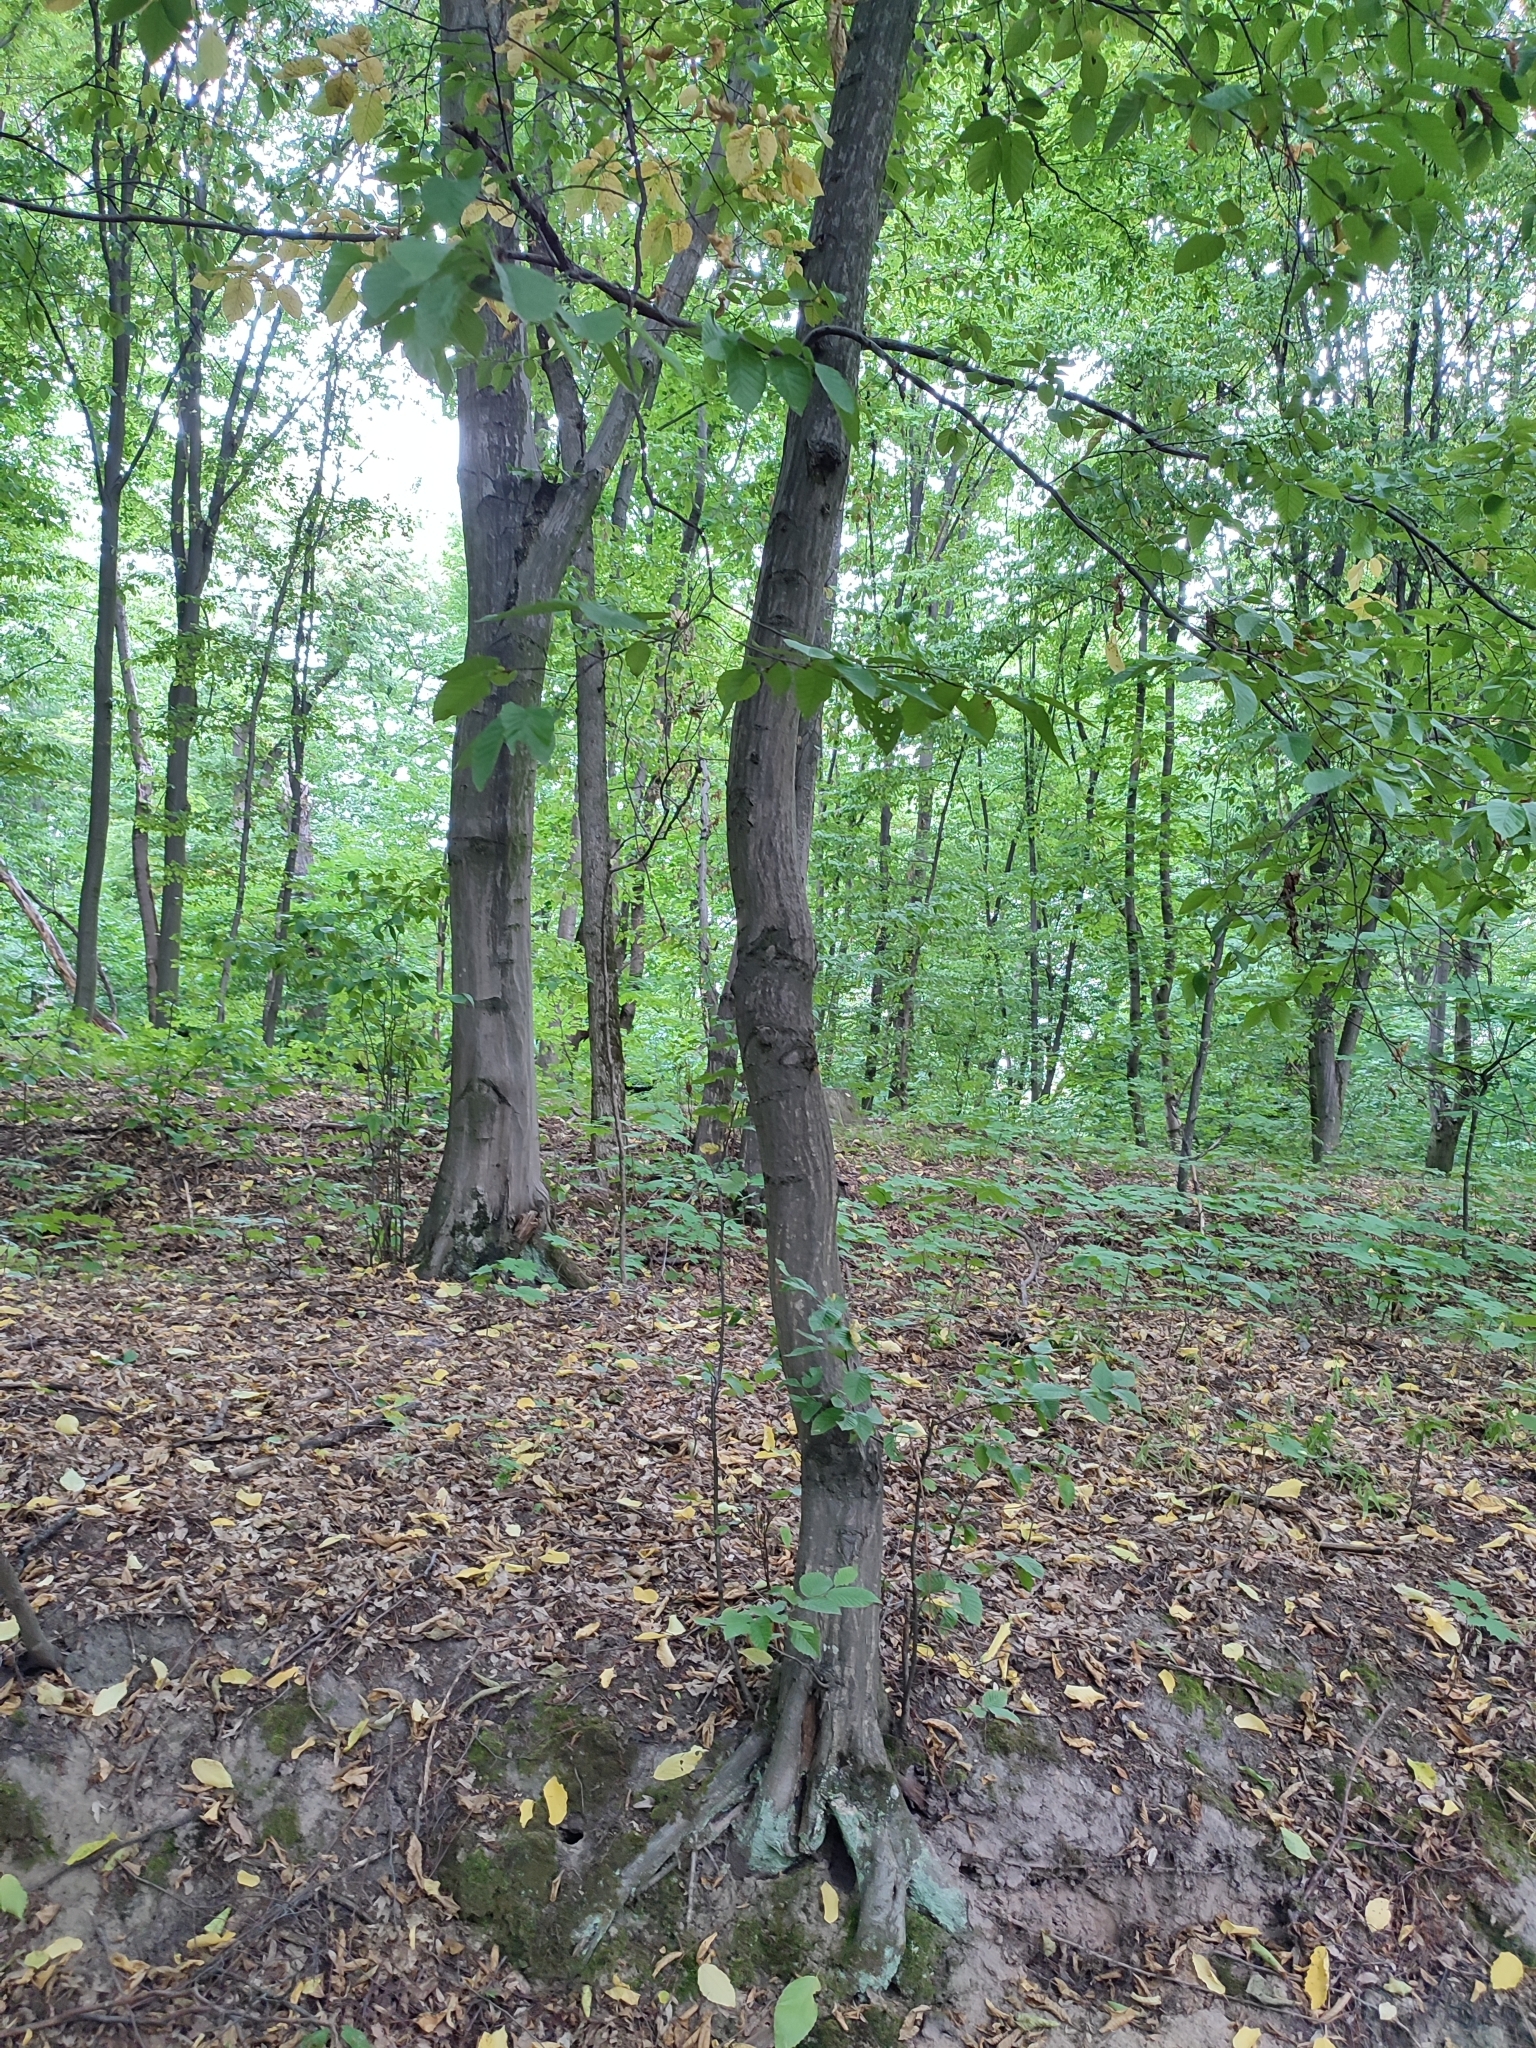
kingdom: Plantae
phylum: Tracheophyta
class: Magnoliopsida
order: Fagales
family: Betulaceae
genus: Carpinus
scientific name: Carpinus betulus
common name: Hornbeam
